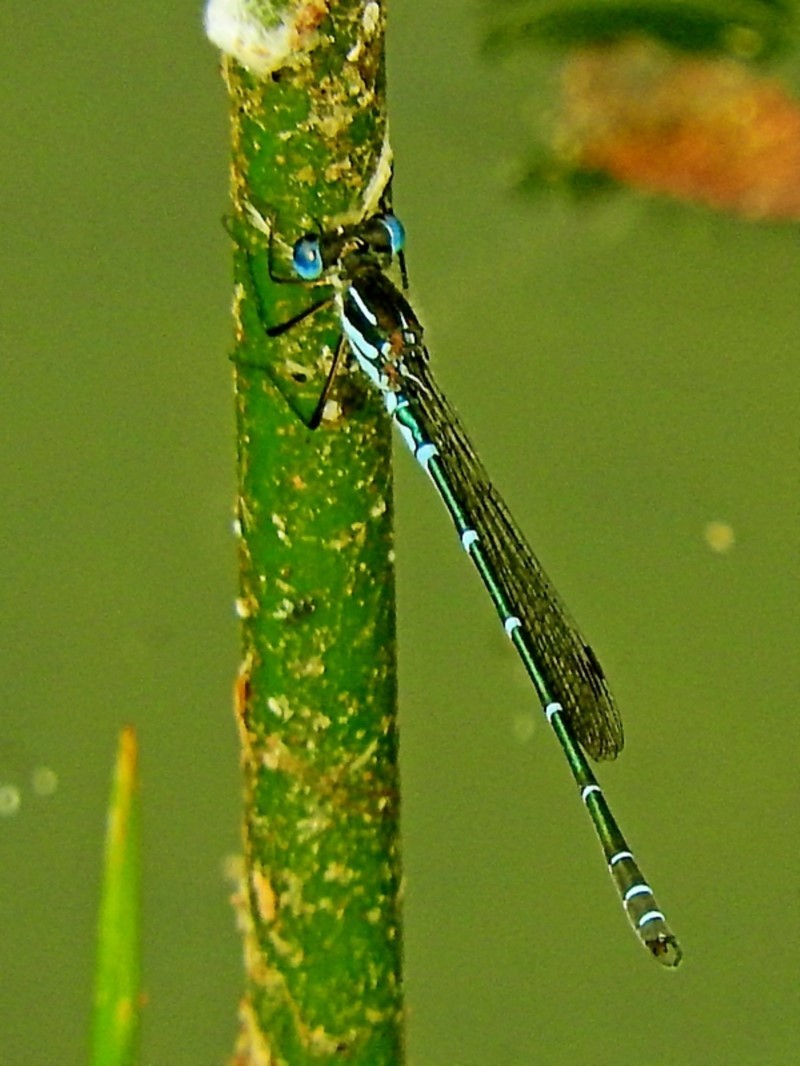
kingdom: Animalia
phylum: Arthropoda
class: Insecta
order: Odonata
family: Lestidae
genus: Austrolestes
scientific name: Austrolestes psyche
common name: Cup ringtail
